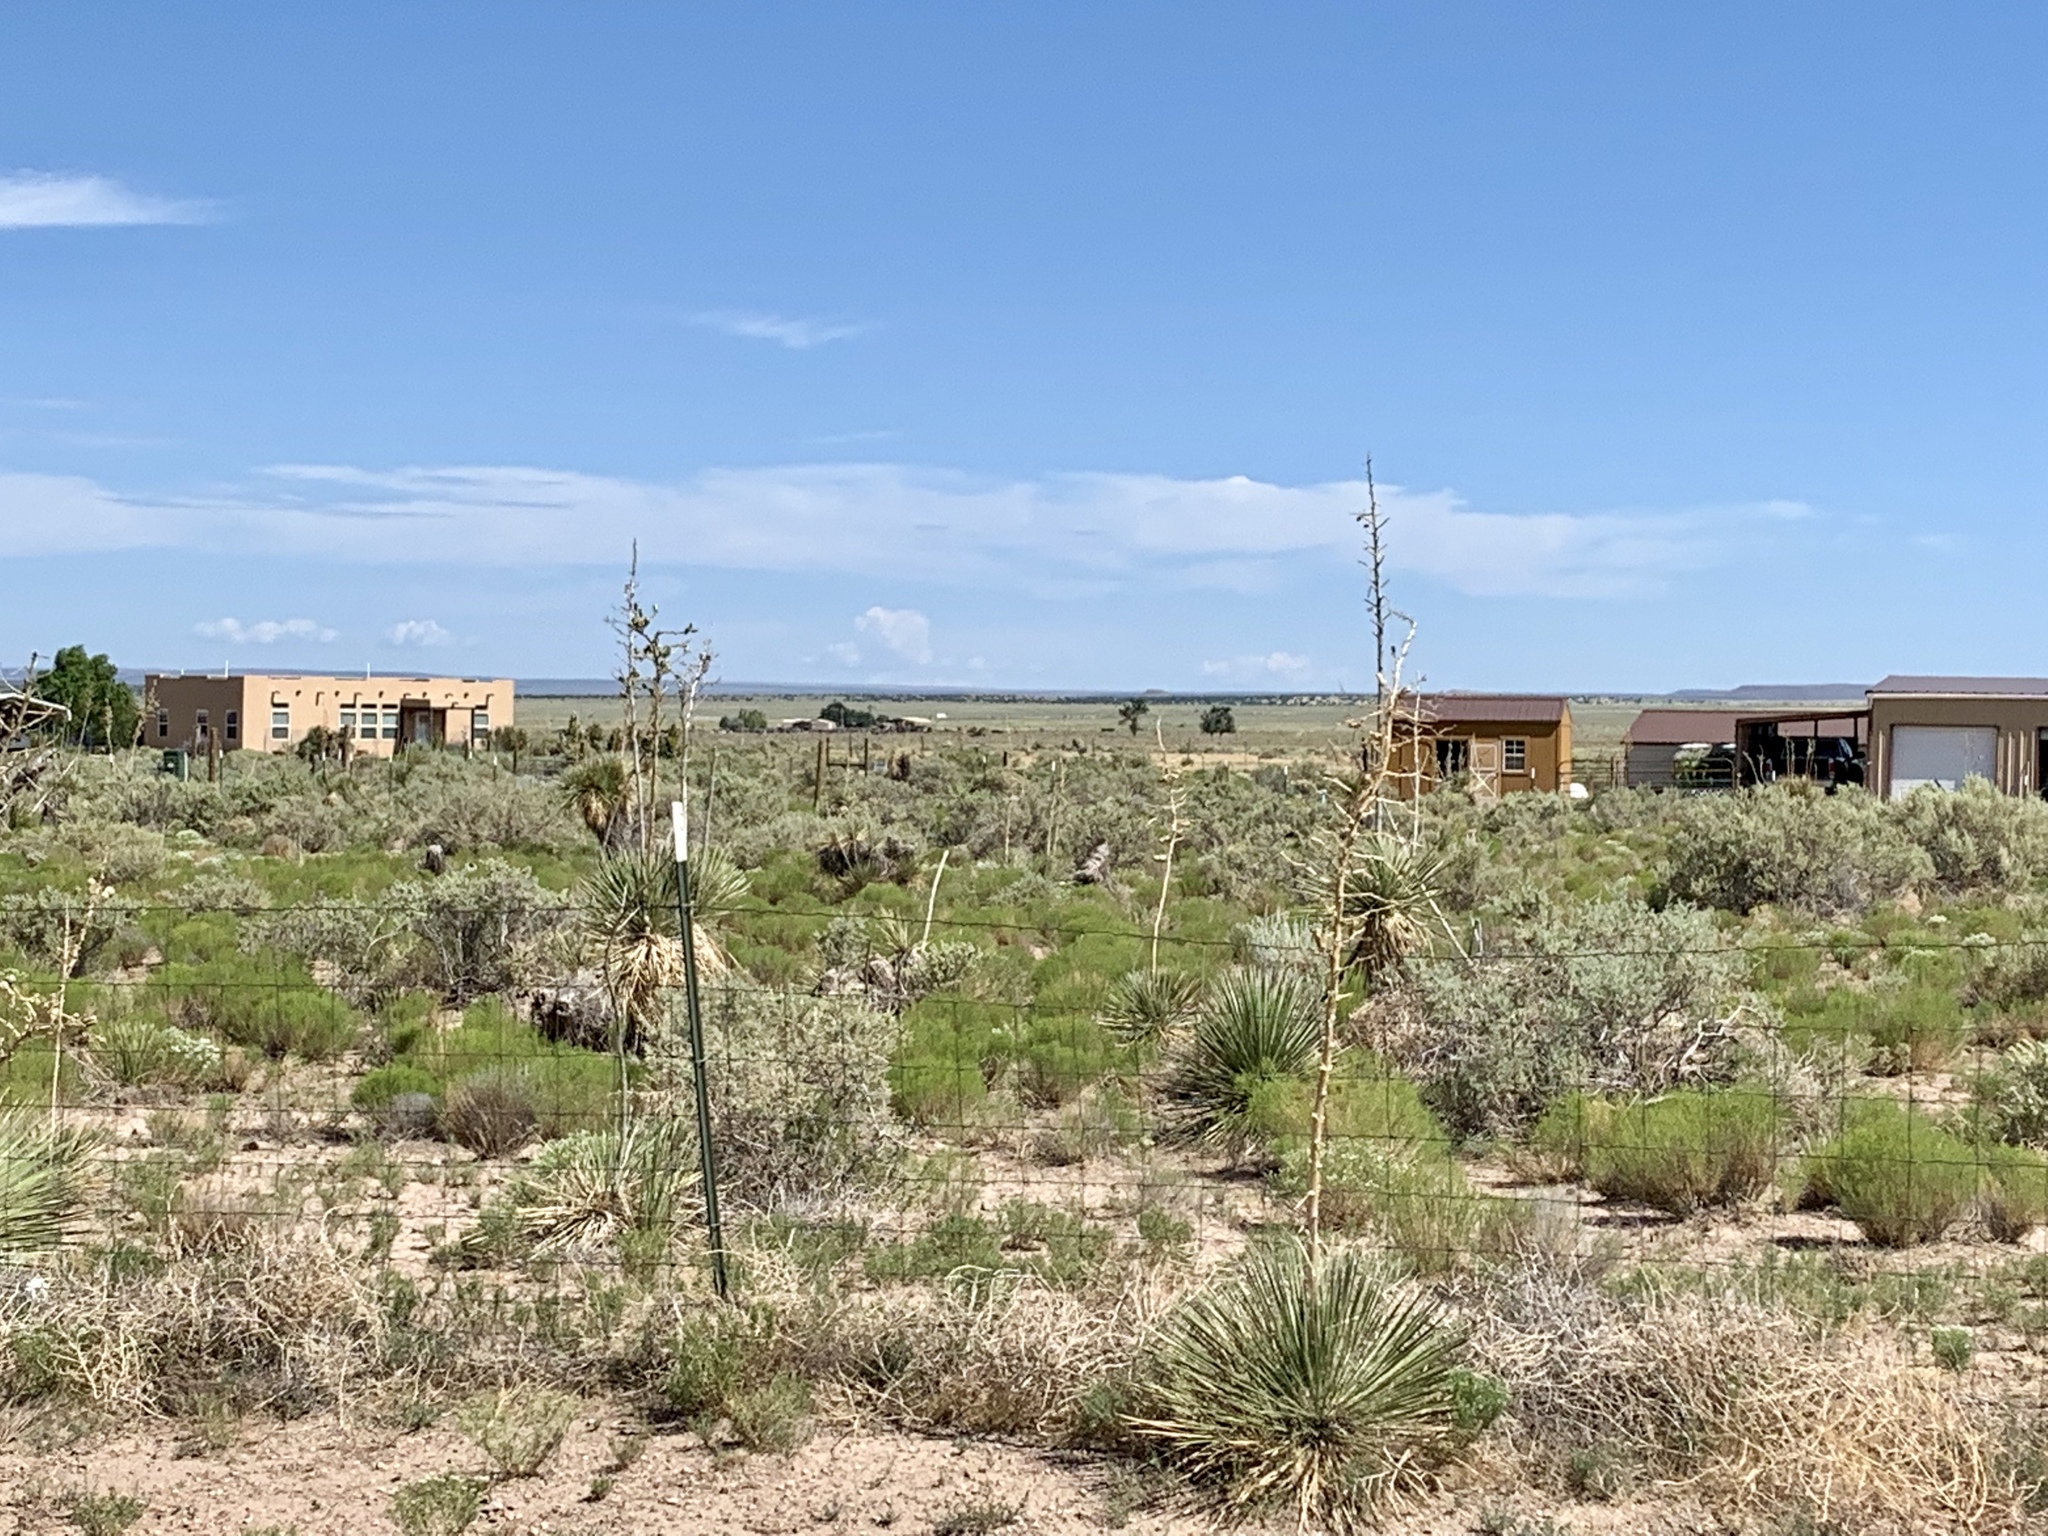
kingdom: Plantae
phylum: Tracheophyta
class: Liliopsida
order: Asparagales
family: Asparagaceae
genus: Yucca
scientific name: Yucca elata
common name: Palmella
